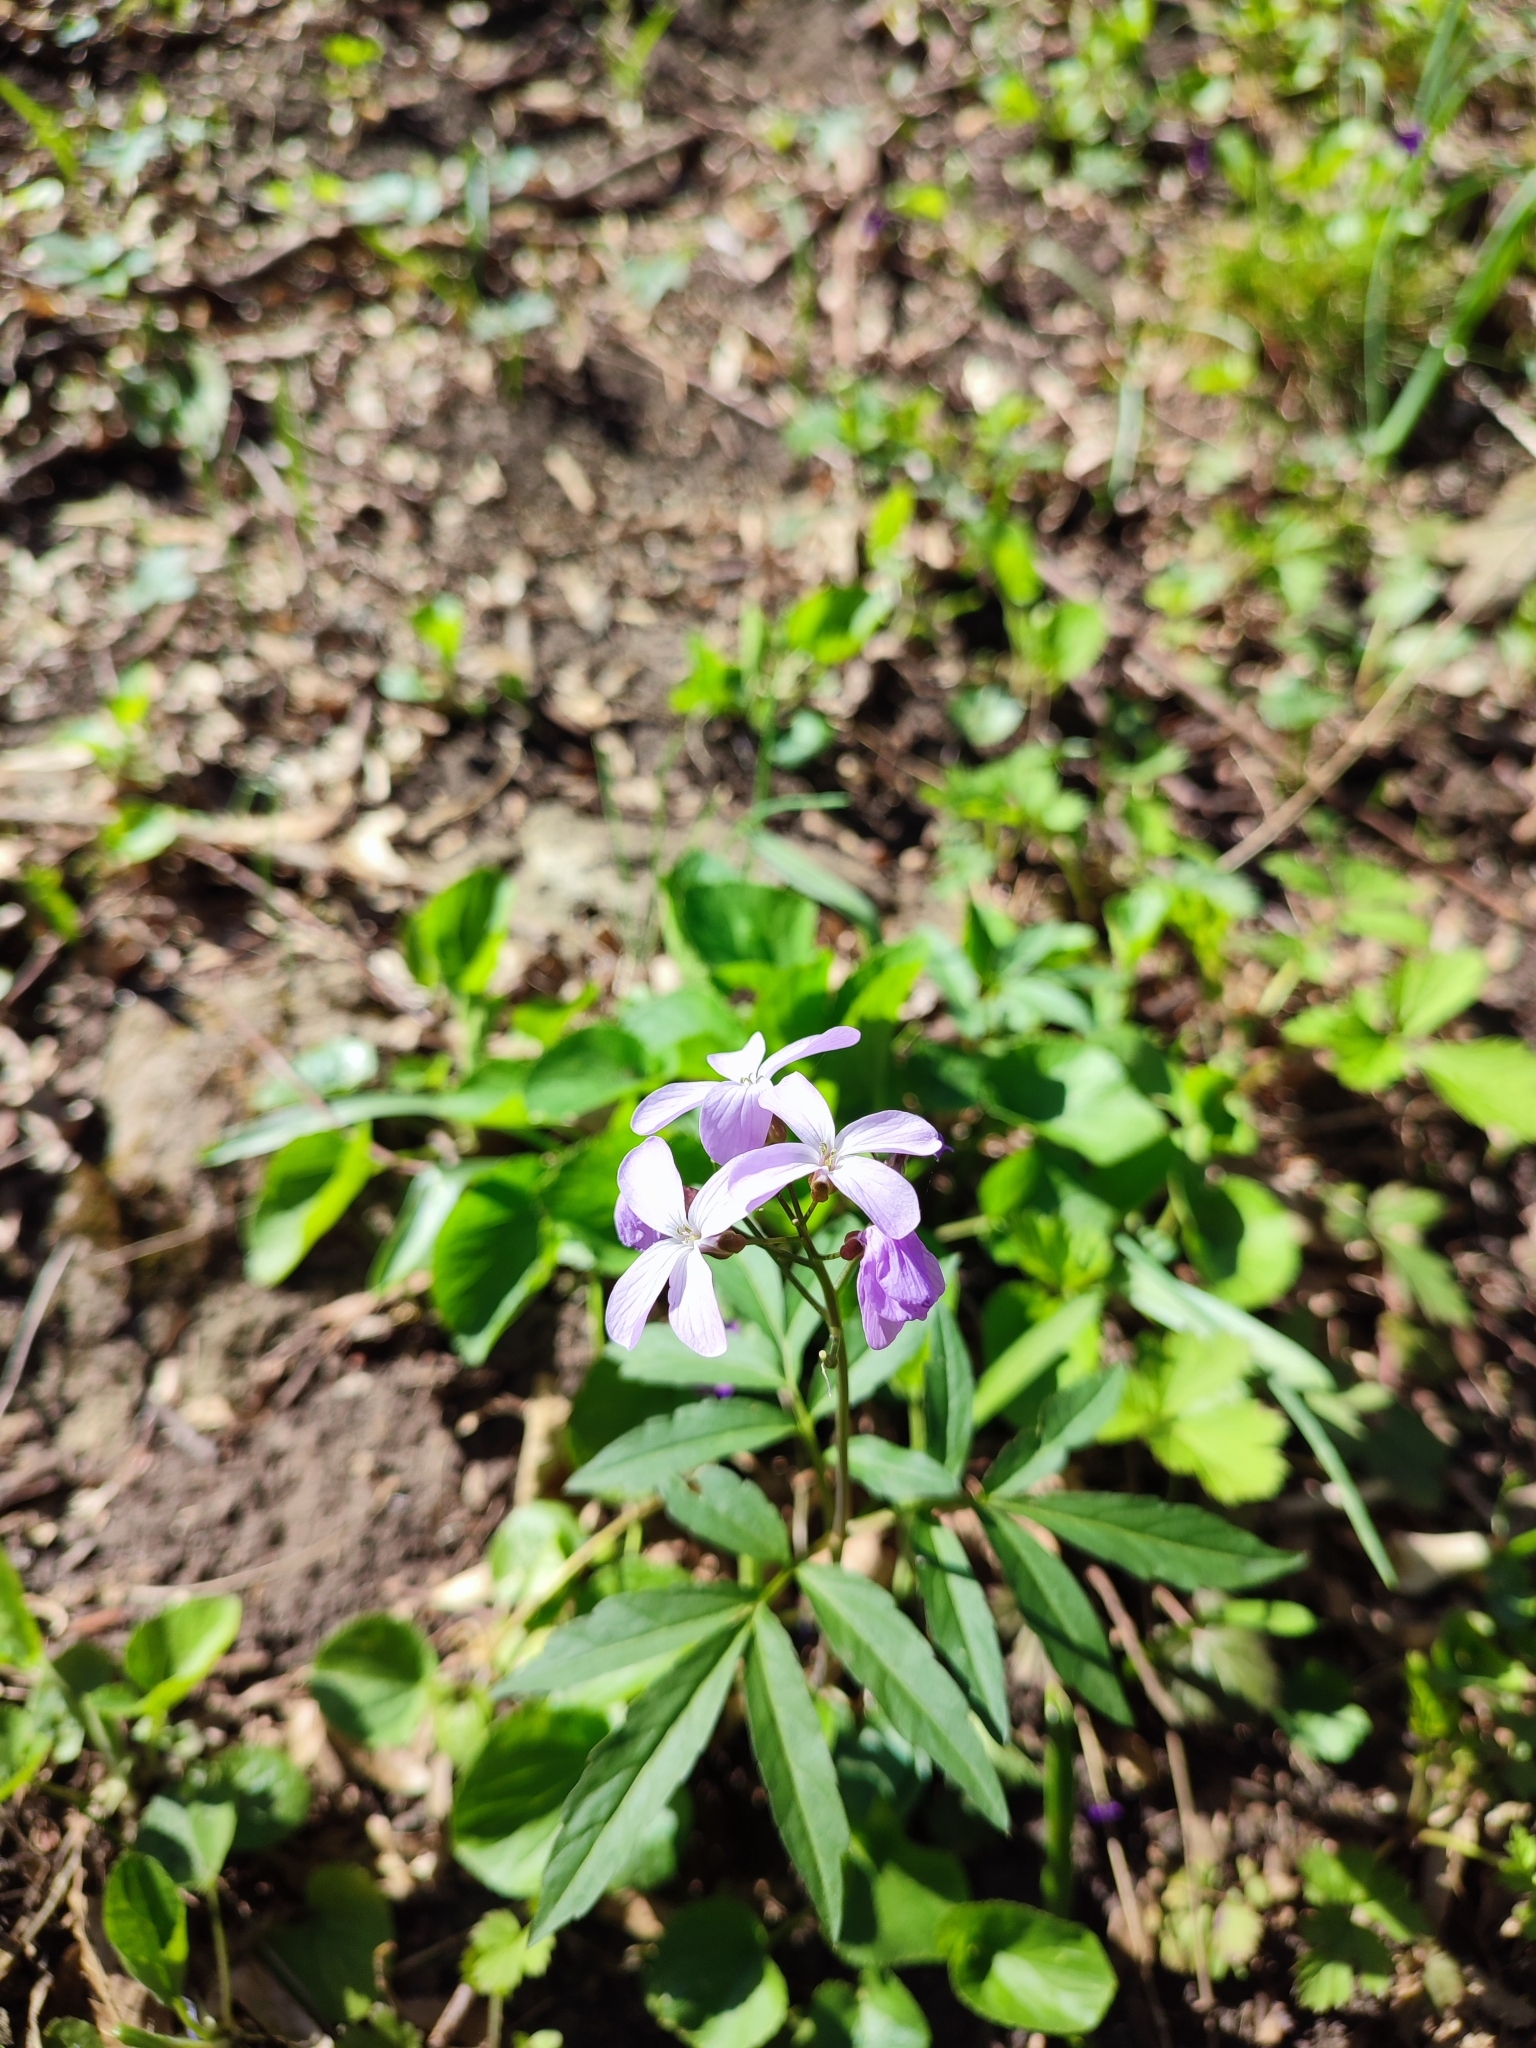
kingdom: Plantae
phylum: Tracheophyta
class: Magnoliopsida
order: Brassicales
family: Brassicaceae
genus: Cardamine
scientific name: Cardamine quinquefolia
